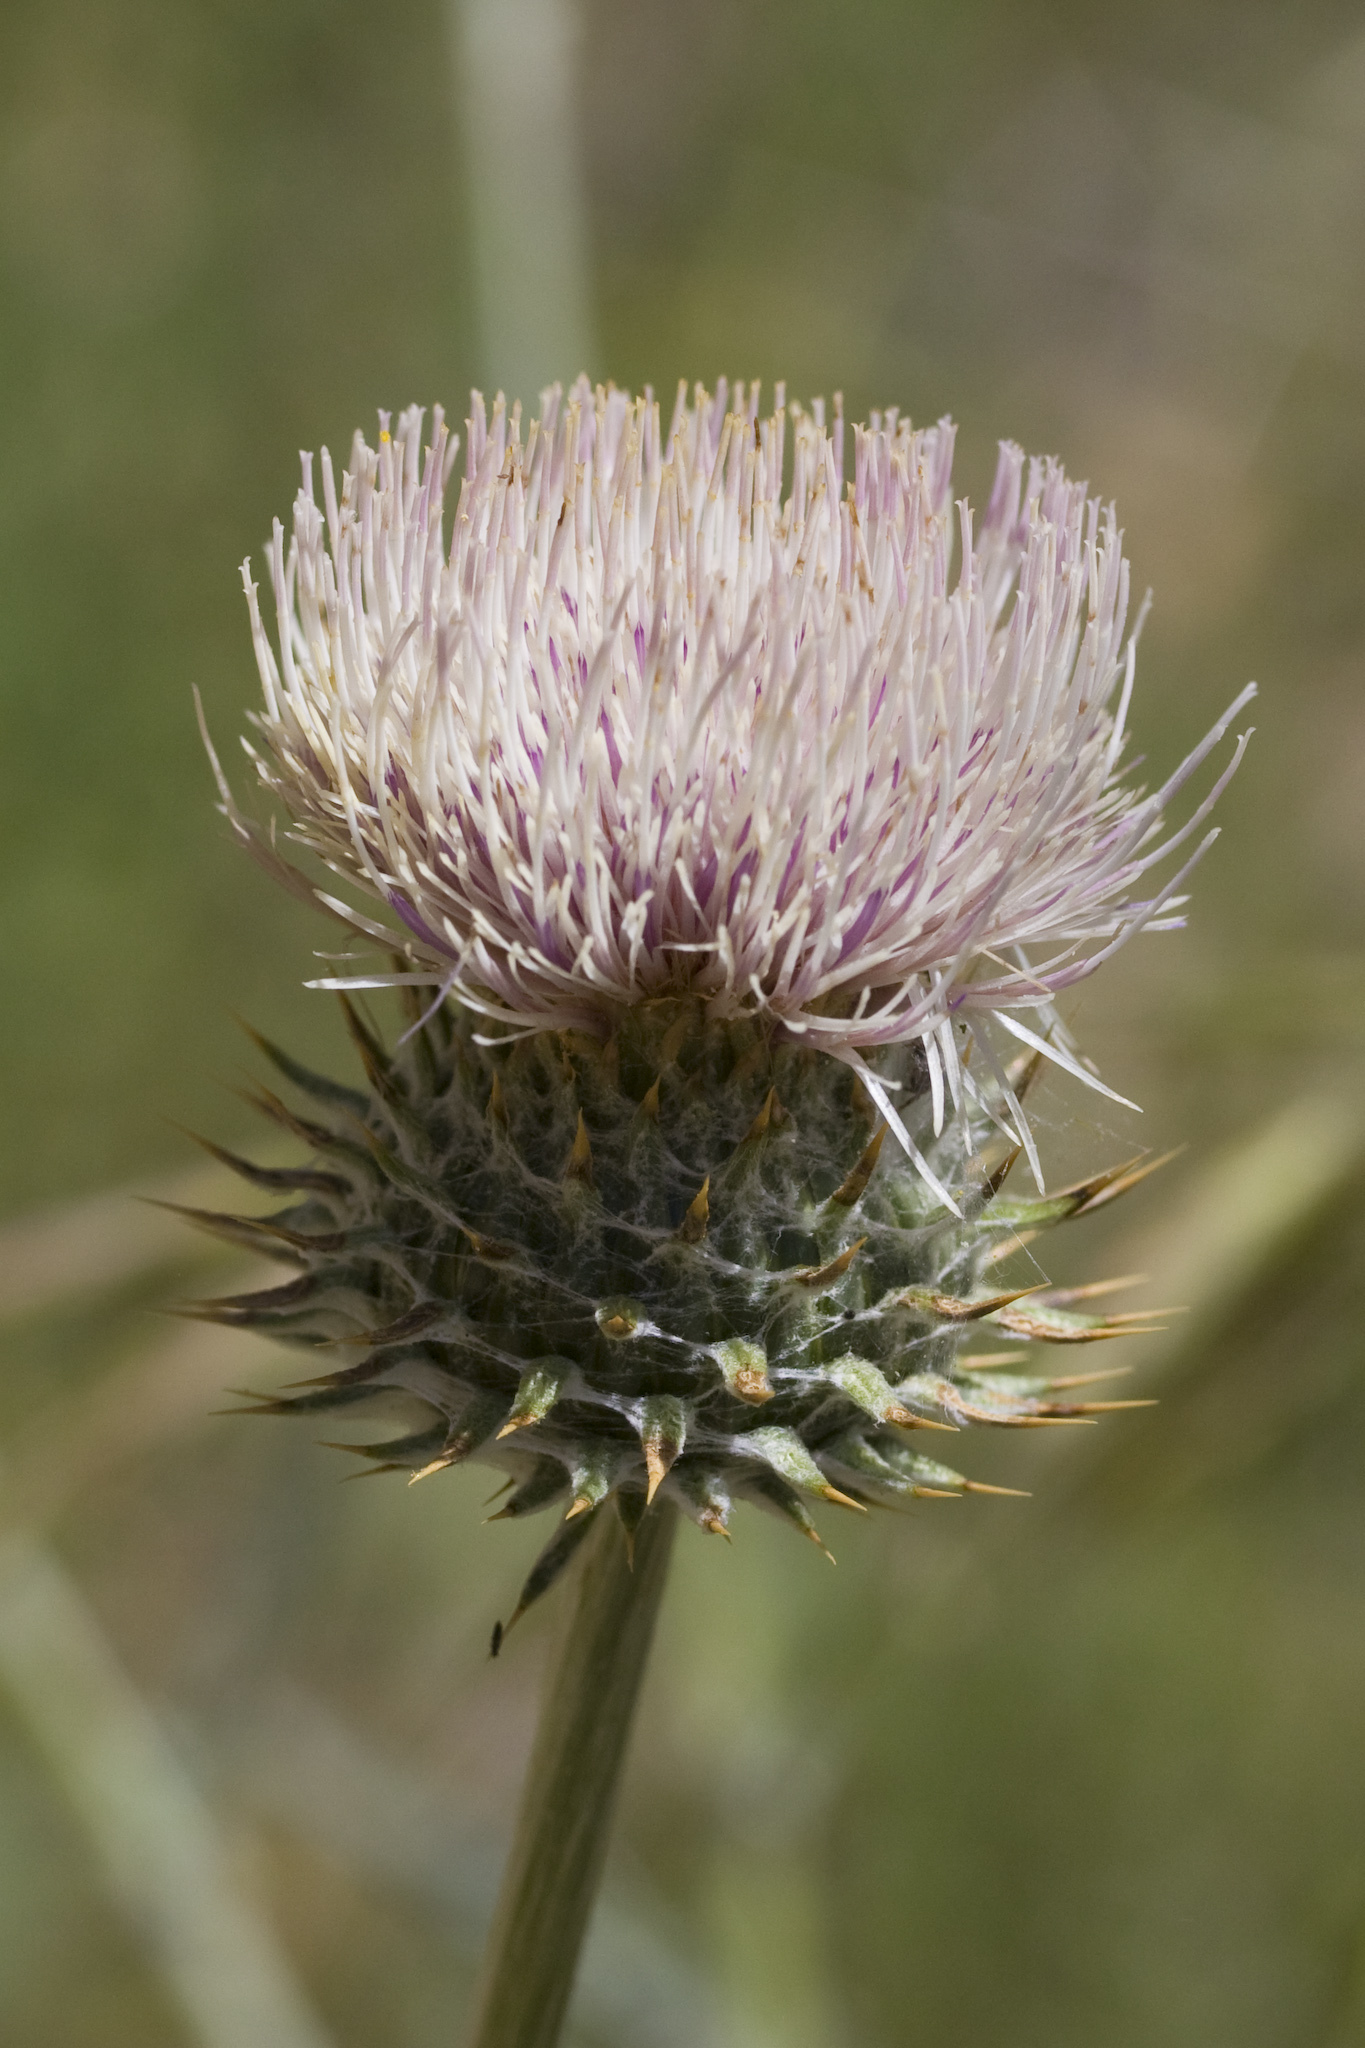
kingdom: Plantae
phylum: Tracheophyta
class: Magnoliopsida
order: Asterales
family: Asteraceae
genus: Cirsium
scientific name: Cirsium occidentale
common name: Western thistle
